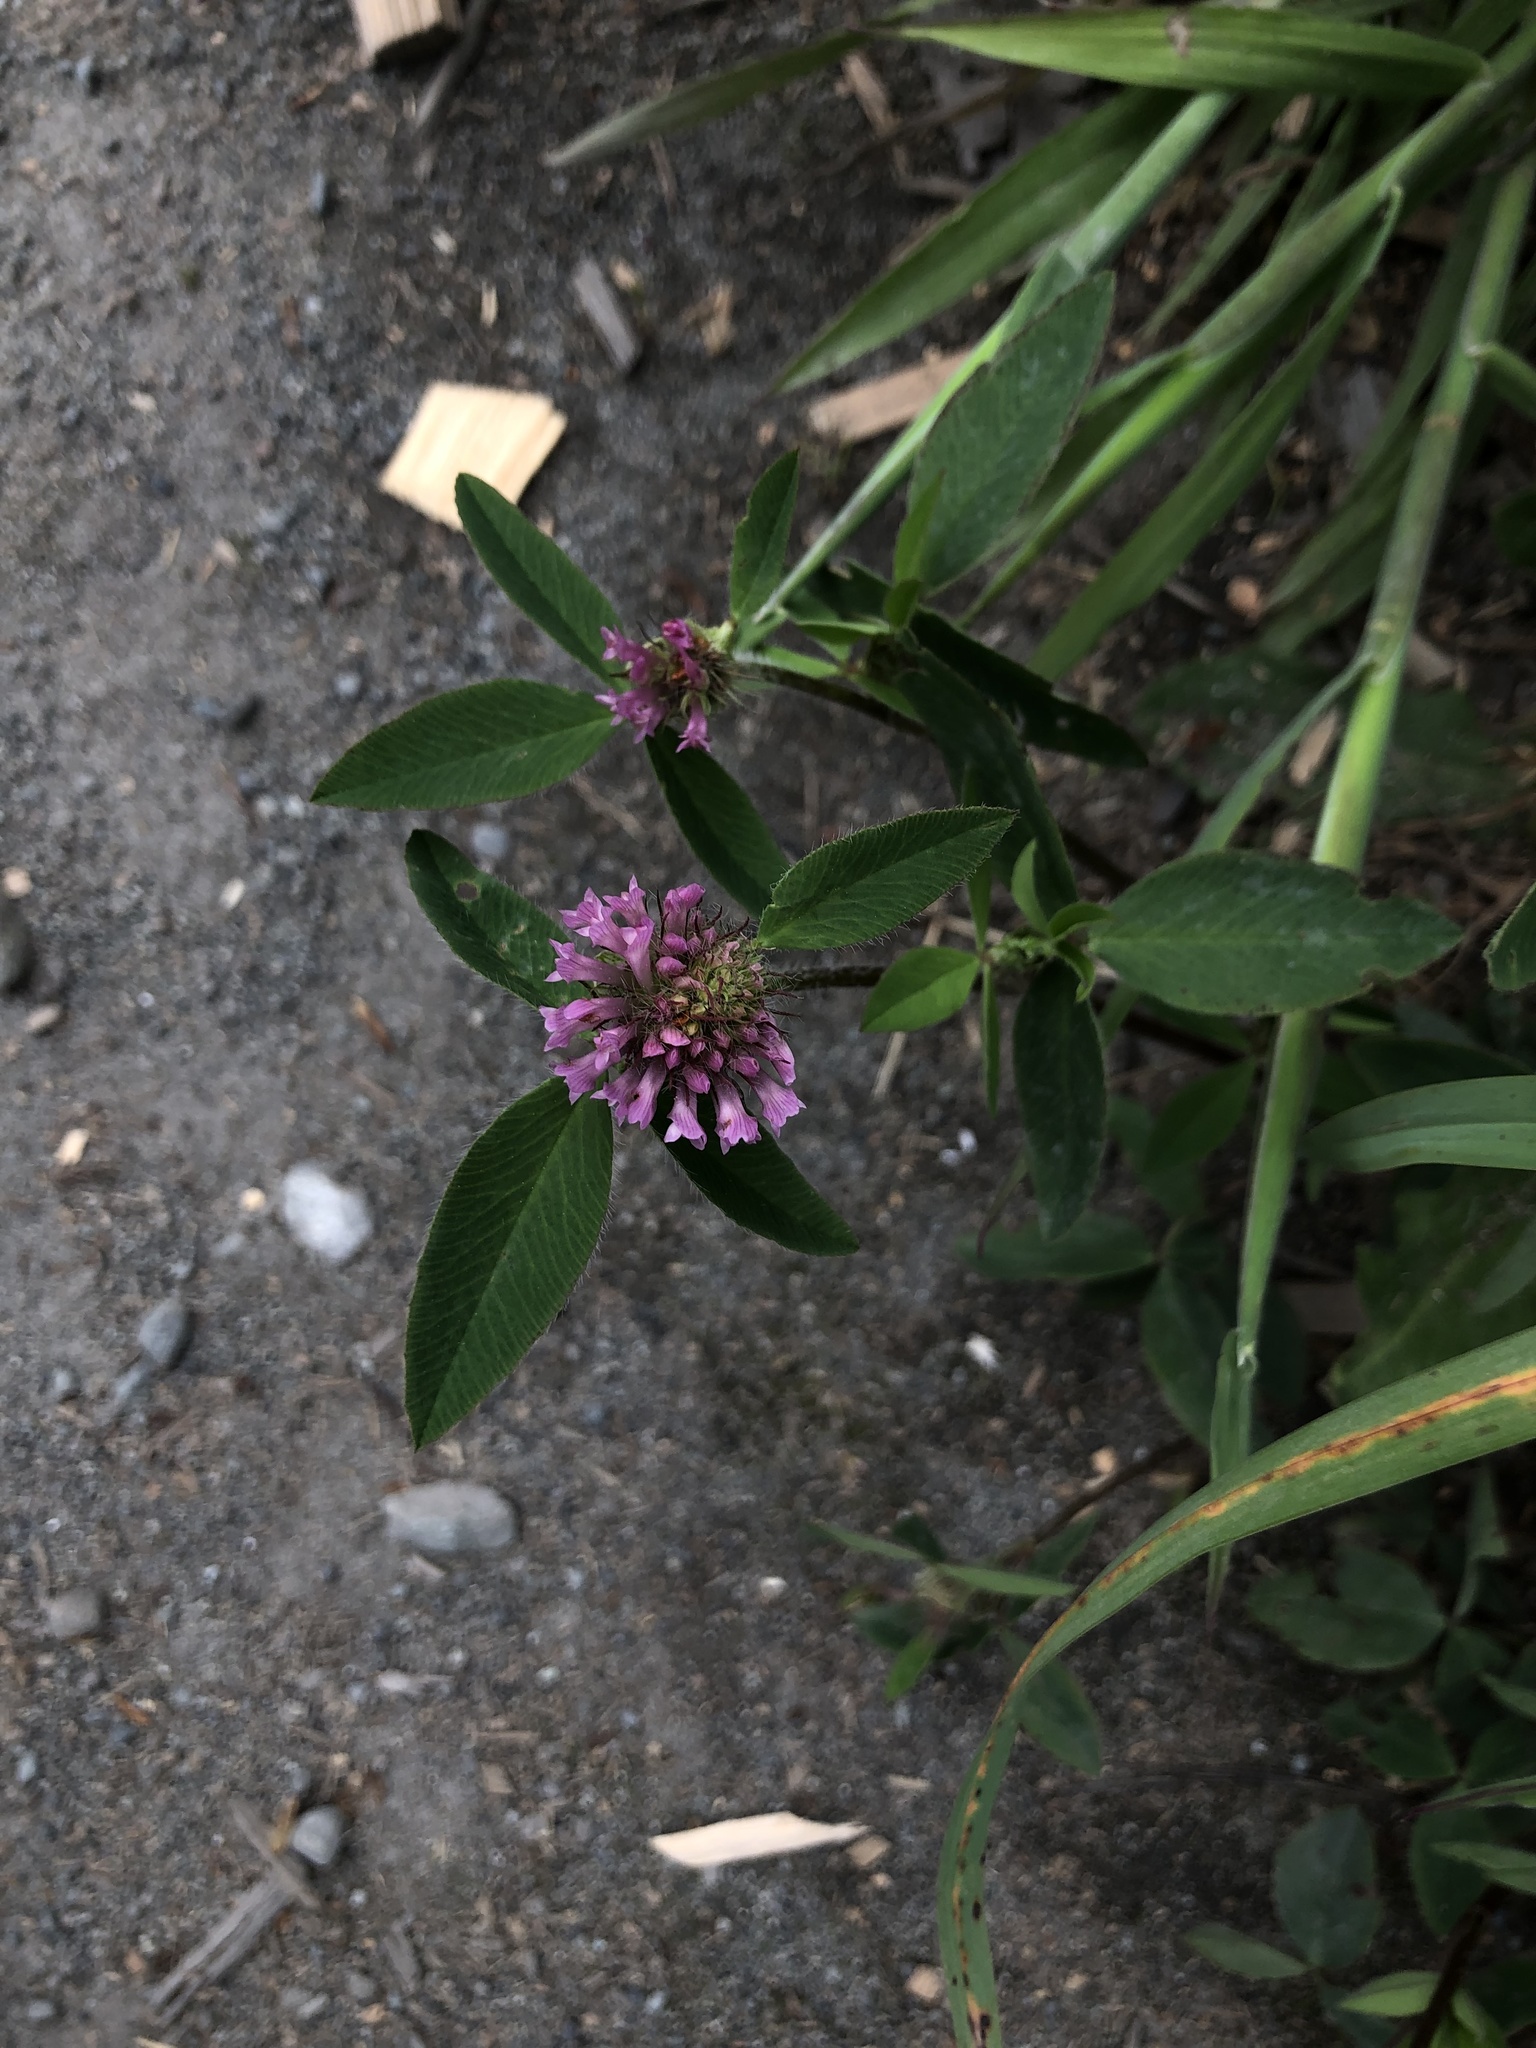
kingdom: Plantae
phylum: Tracheophyta
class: Magnoliopsida
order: Fabales
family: Fabaceae
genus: Trifolium
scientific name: Trifolium pratense
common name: Red clover
